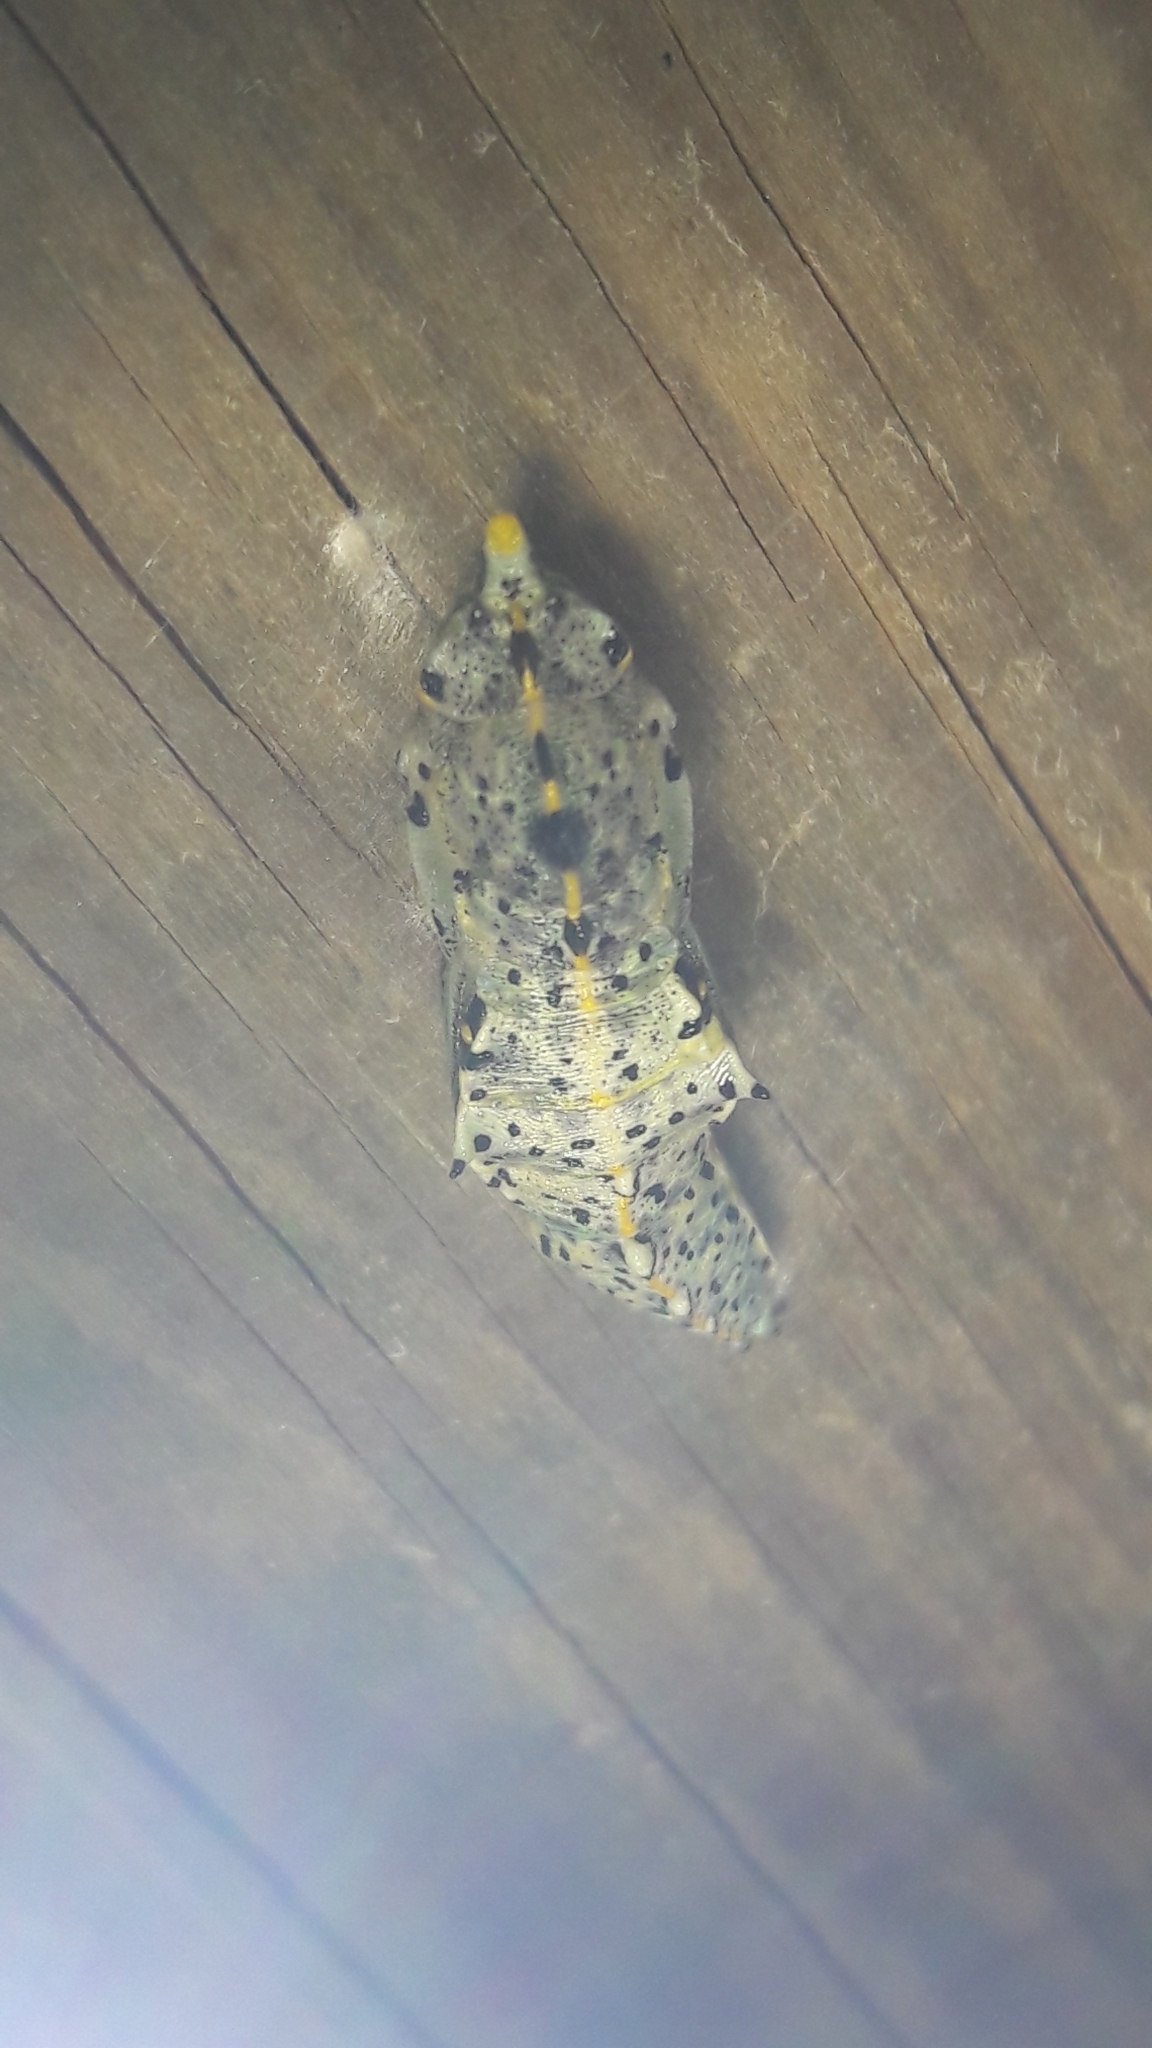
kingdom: Animalia
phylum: Arthropoda
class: Insecta
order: Lepidoptera
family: Pieridae
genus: Pieris
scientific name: Pieris brassicae
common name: Large white
